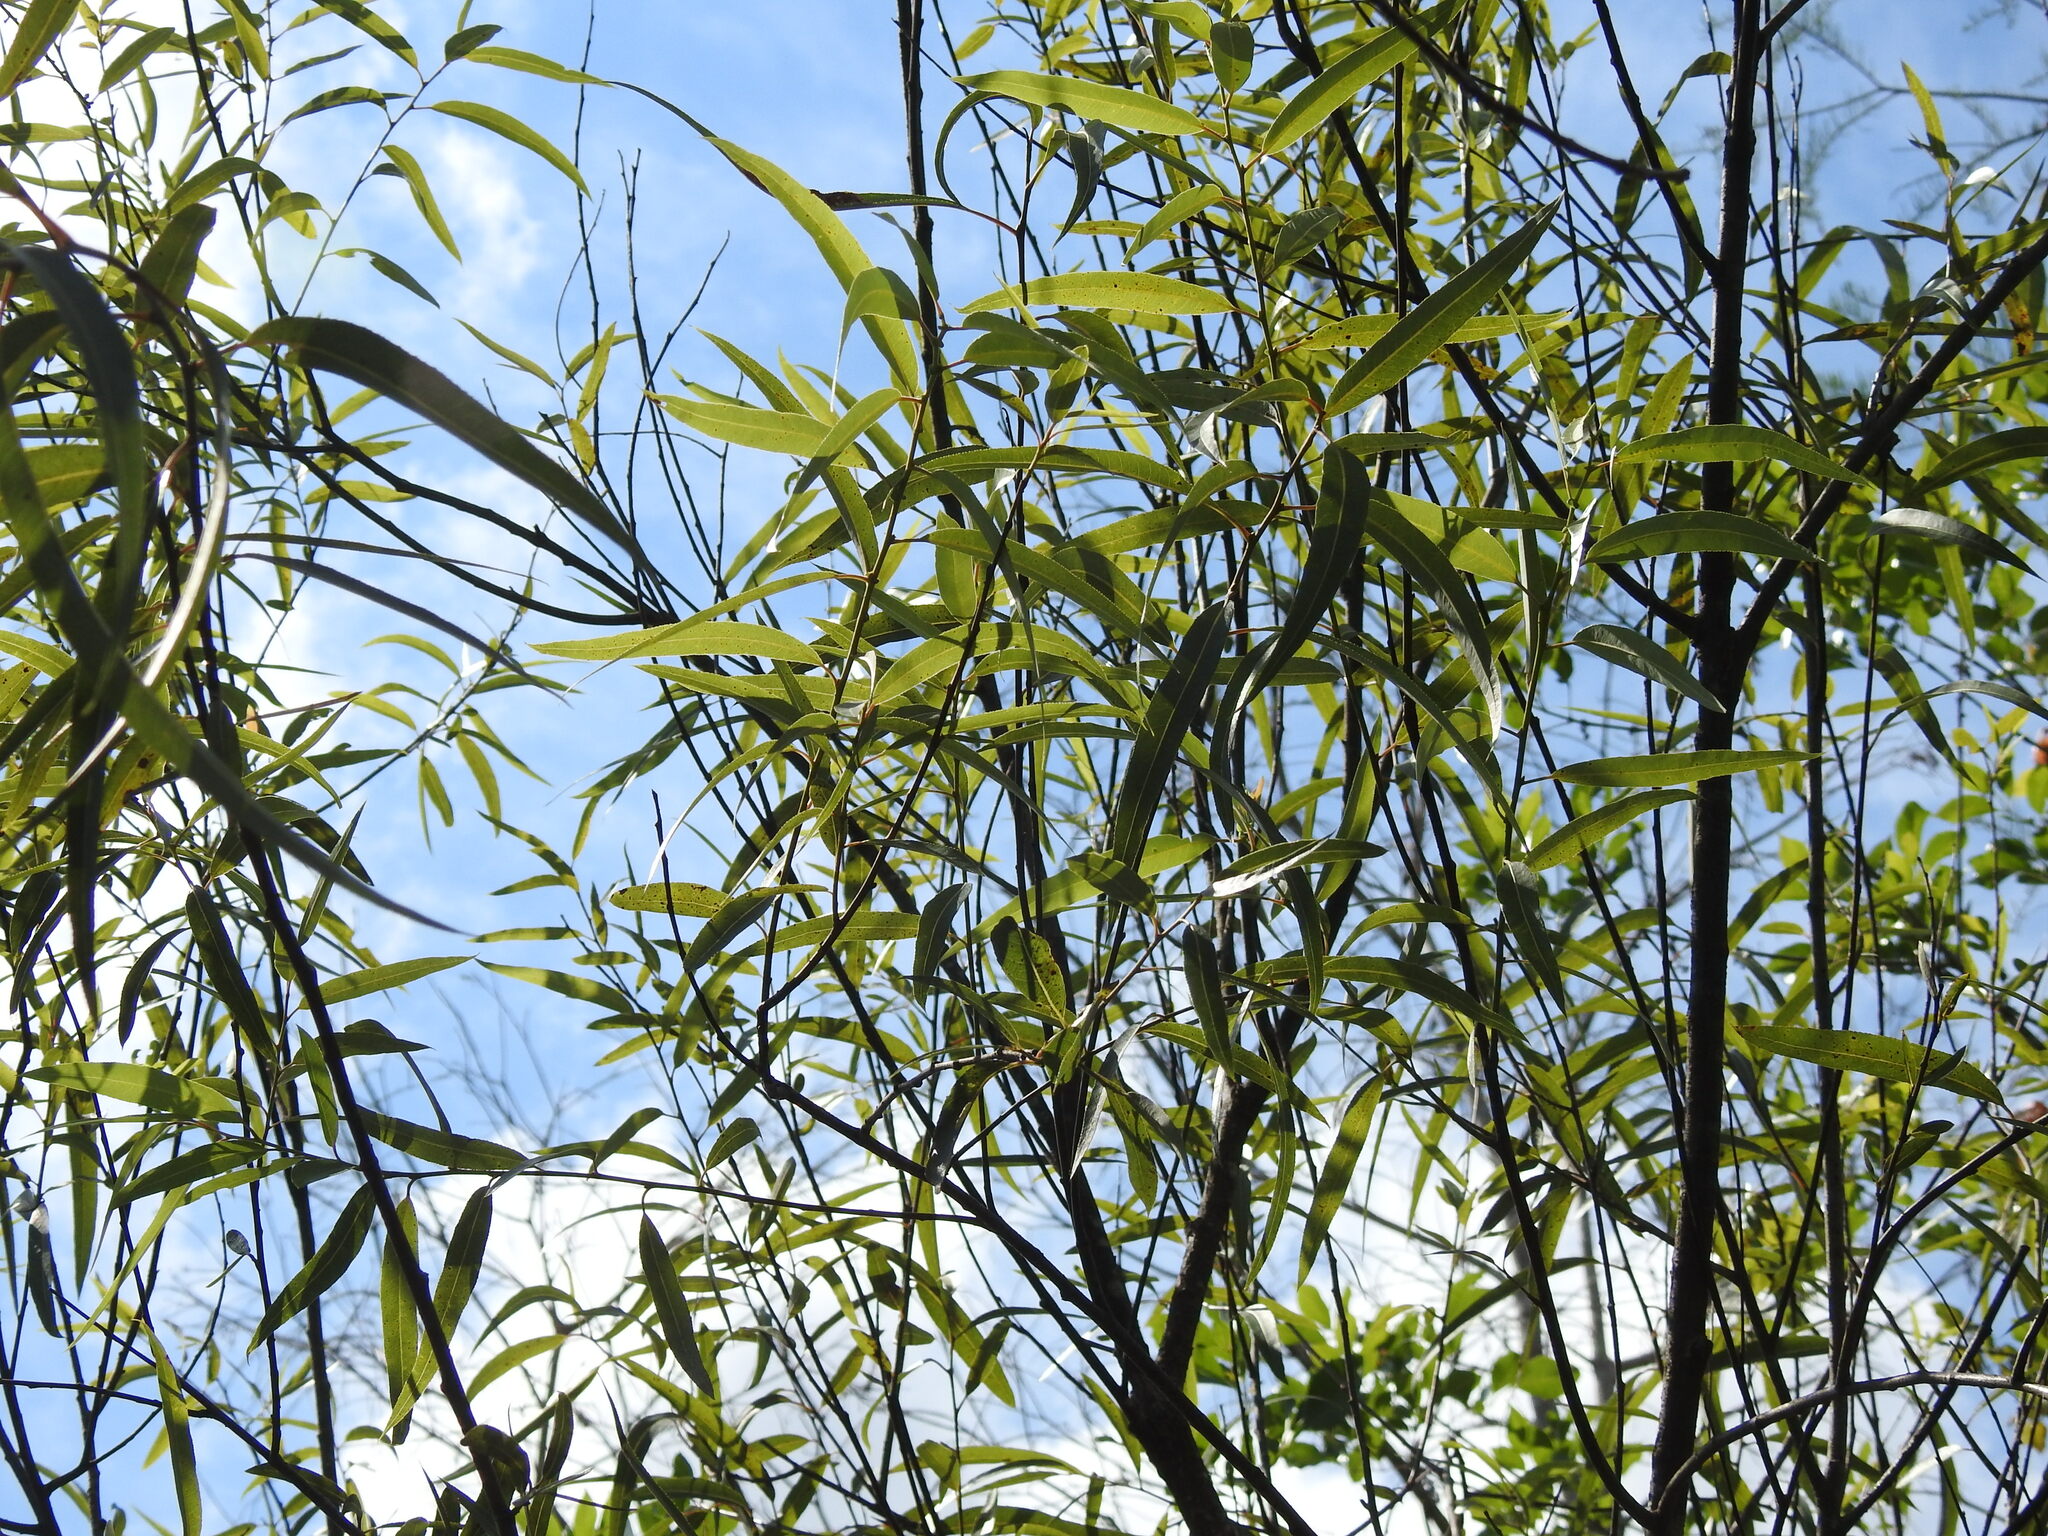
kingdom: Plantae
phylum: Tracheophyta
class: Magnoliopsida
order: Malpighiales
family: Salicaceae
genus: Salix
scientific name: Salix caroliniana
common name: Carolina willow
